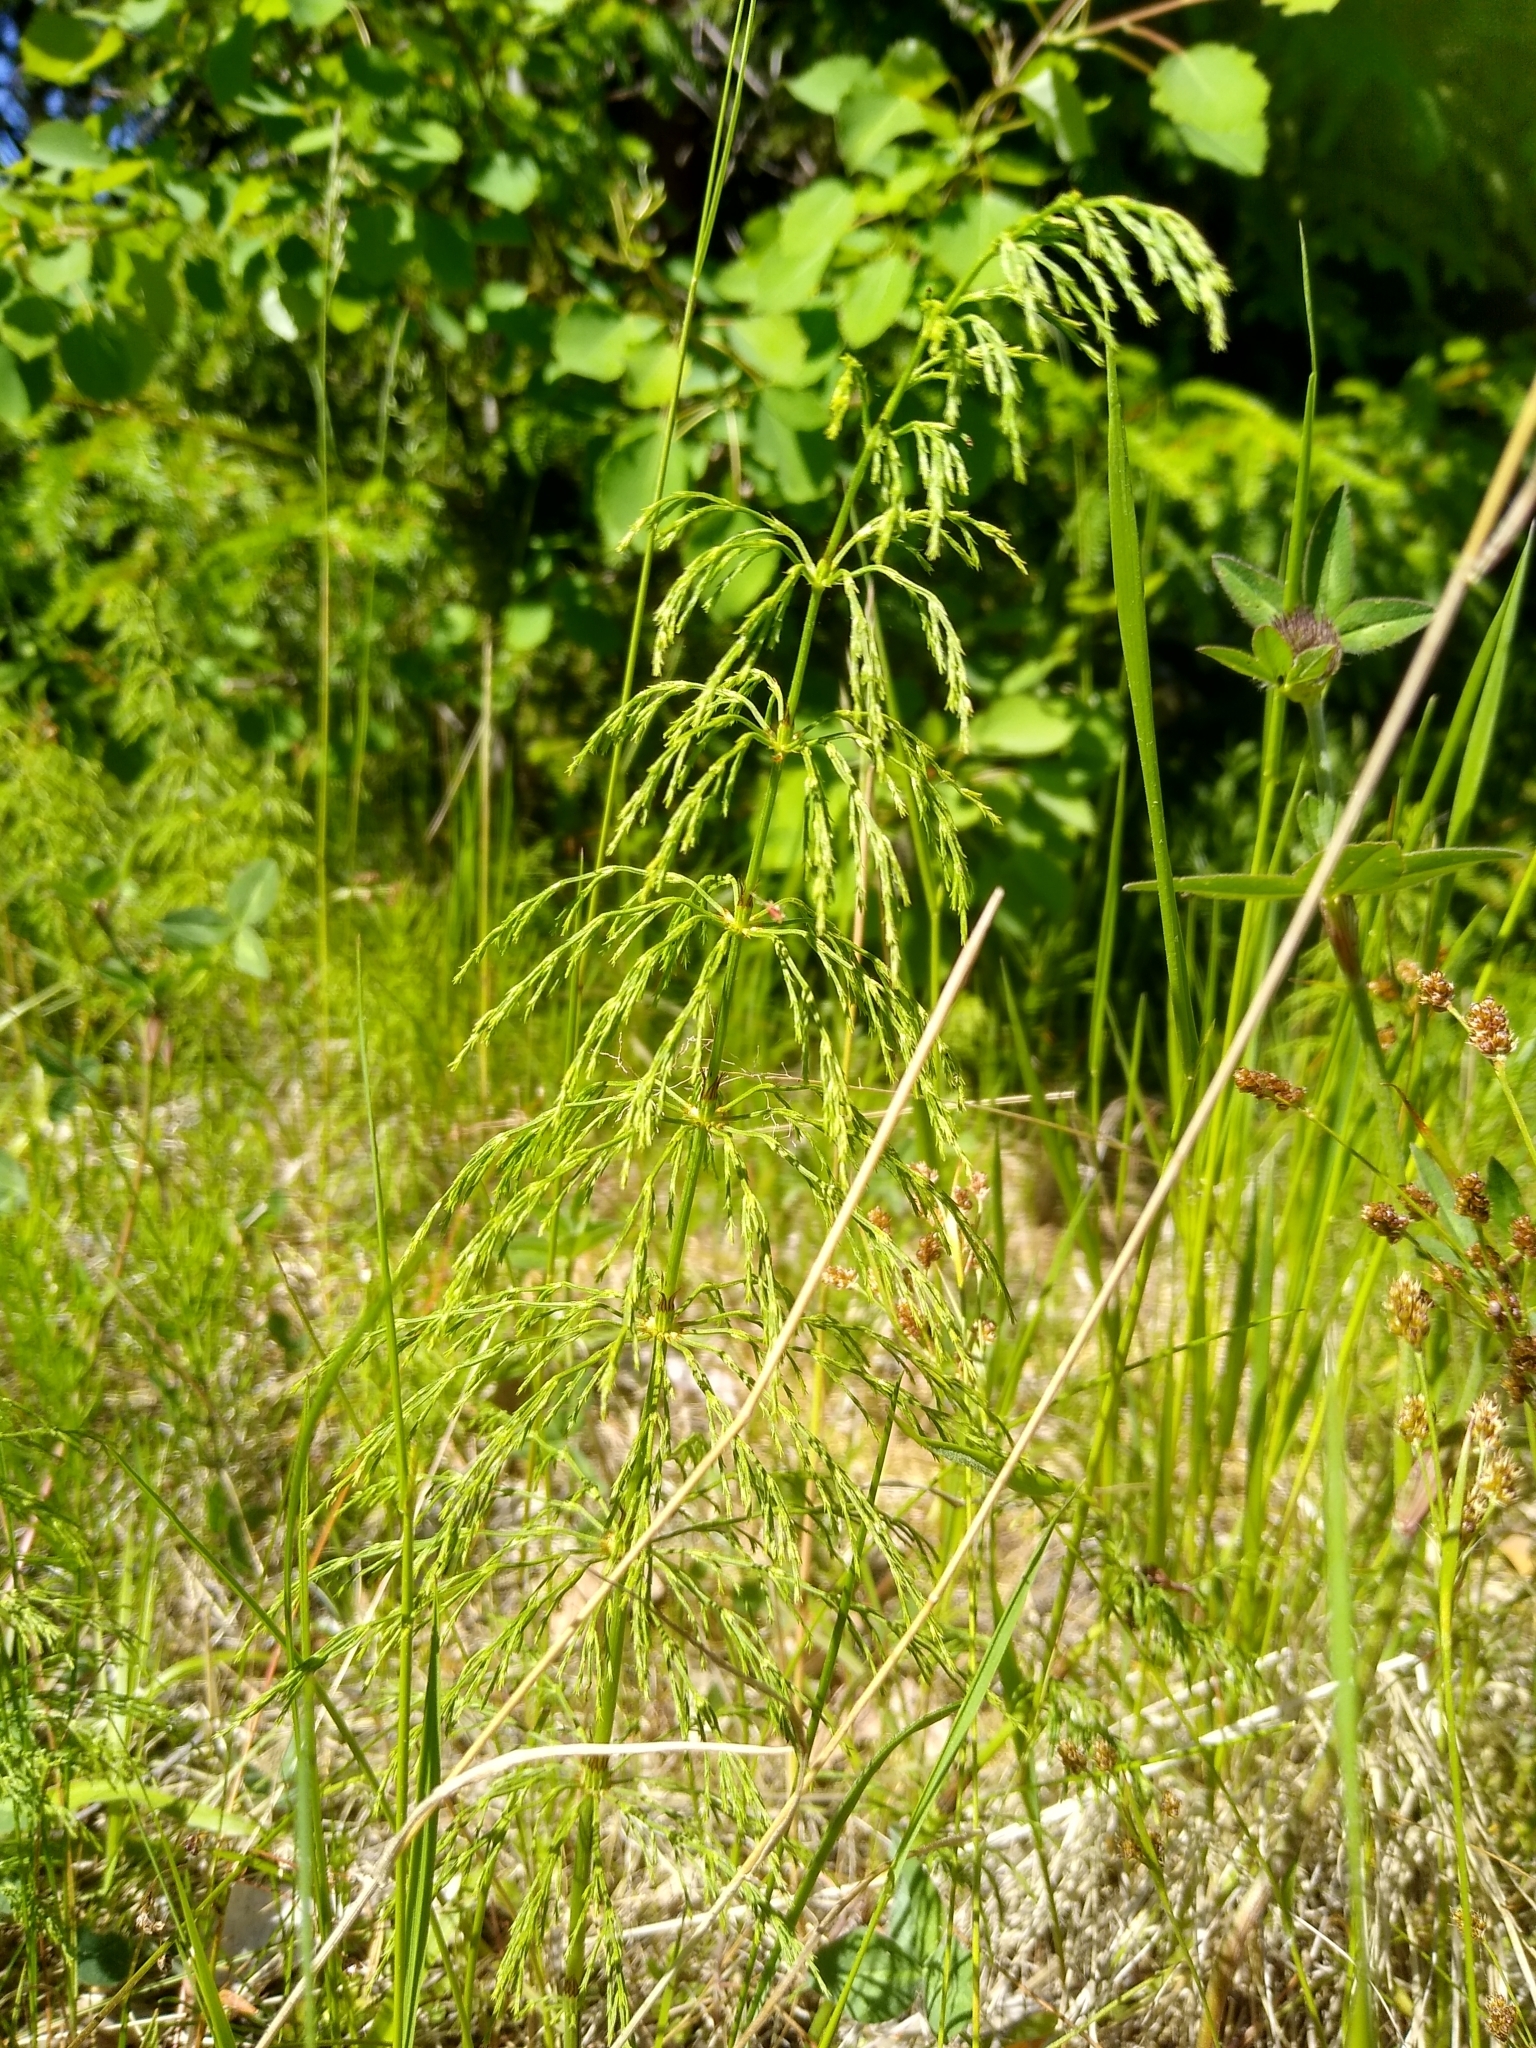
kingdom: Plantae
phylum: Tracheophyta
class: Polypodiopsida
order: Equisetales
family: Equisetaceae
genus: Equisetum
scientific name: Equisetum sylvaticum
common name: Wood horsetail
